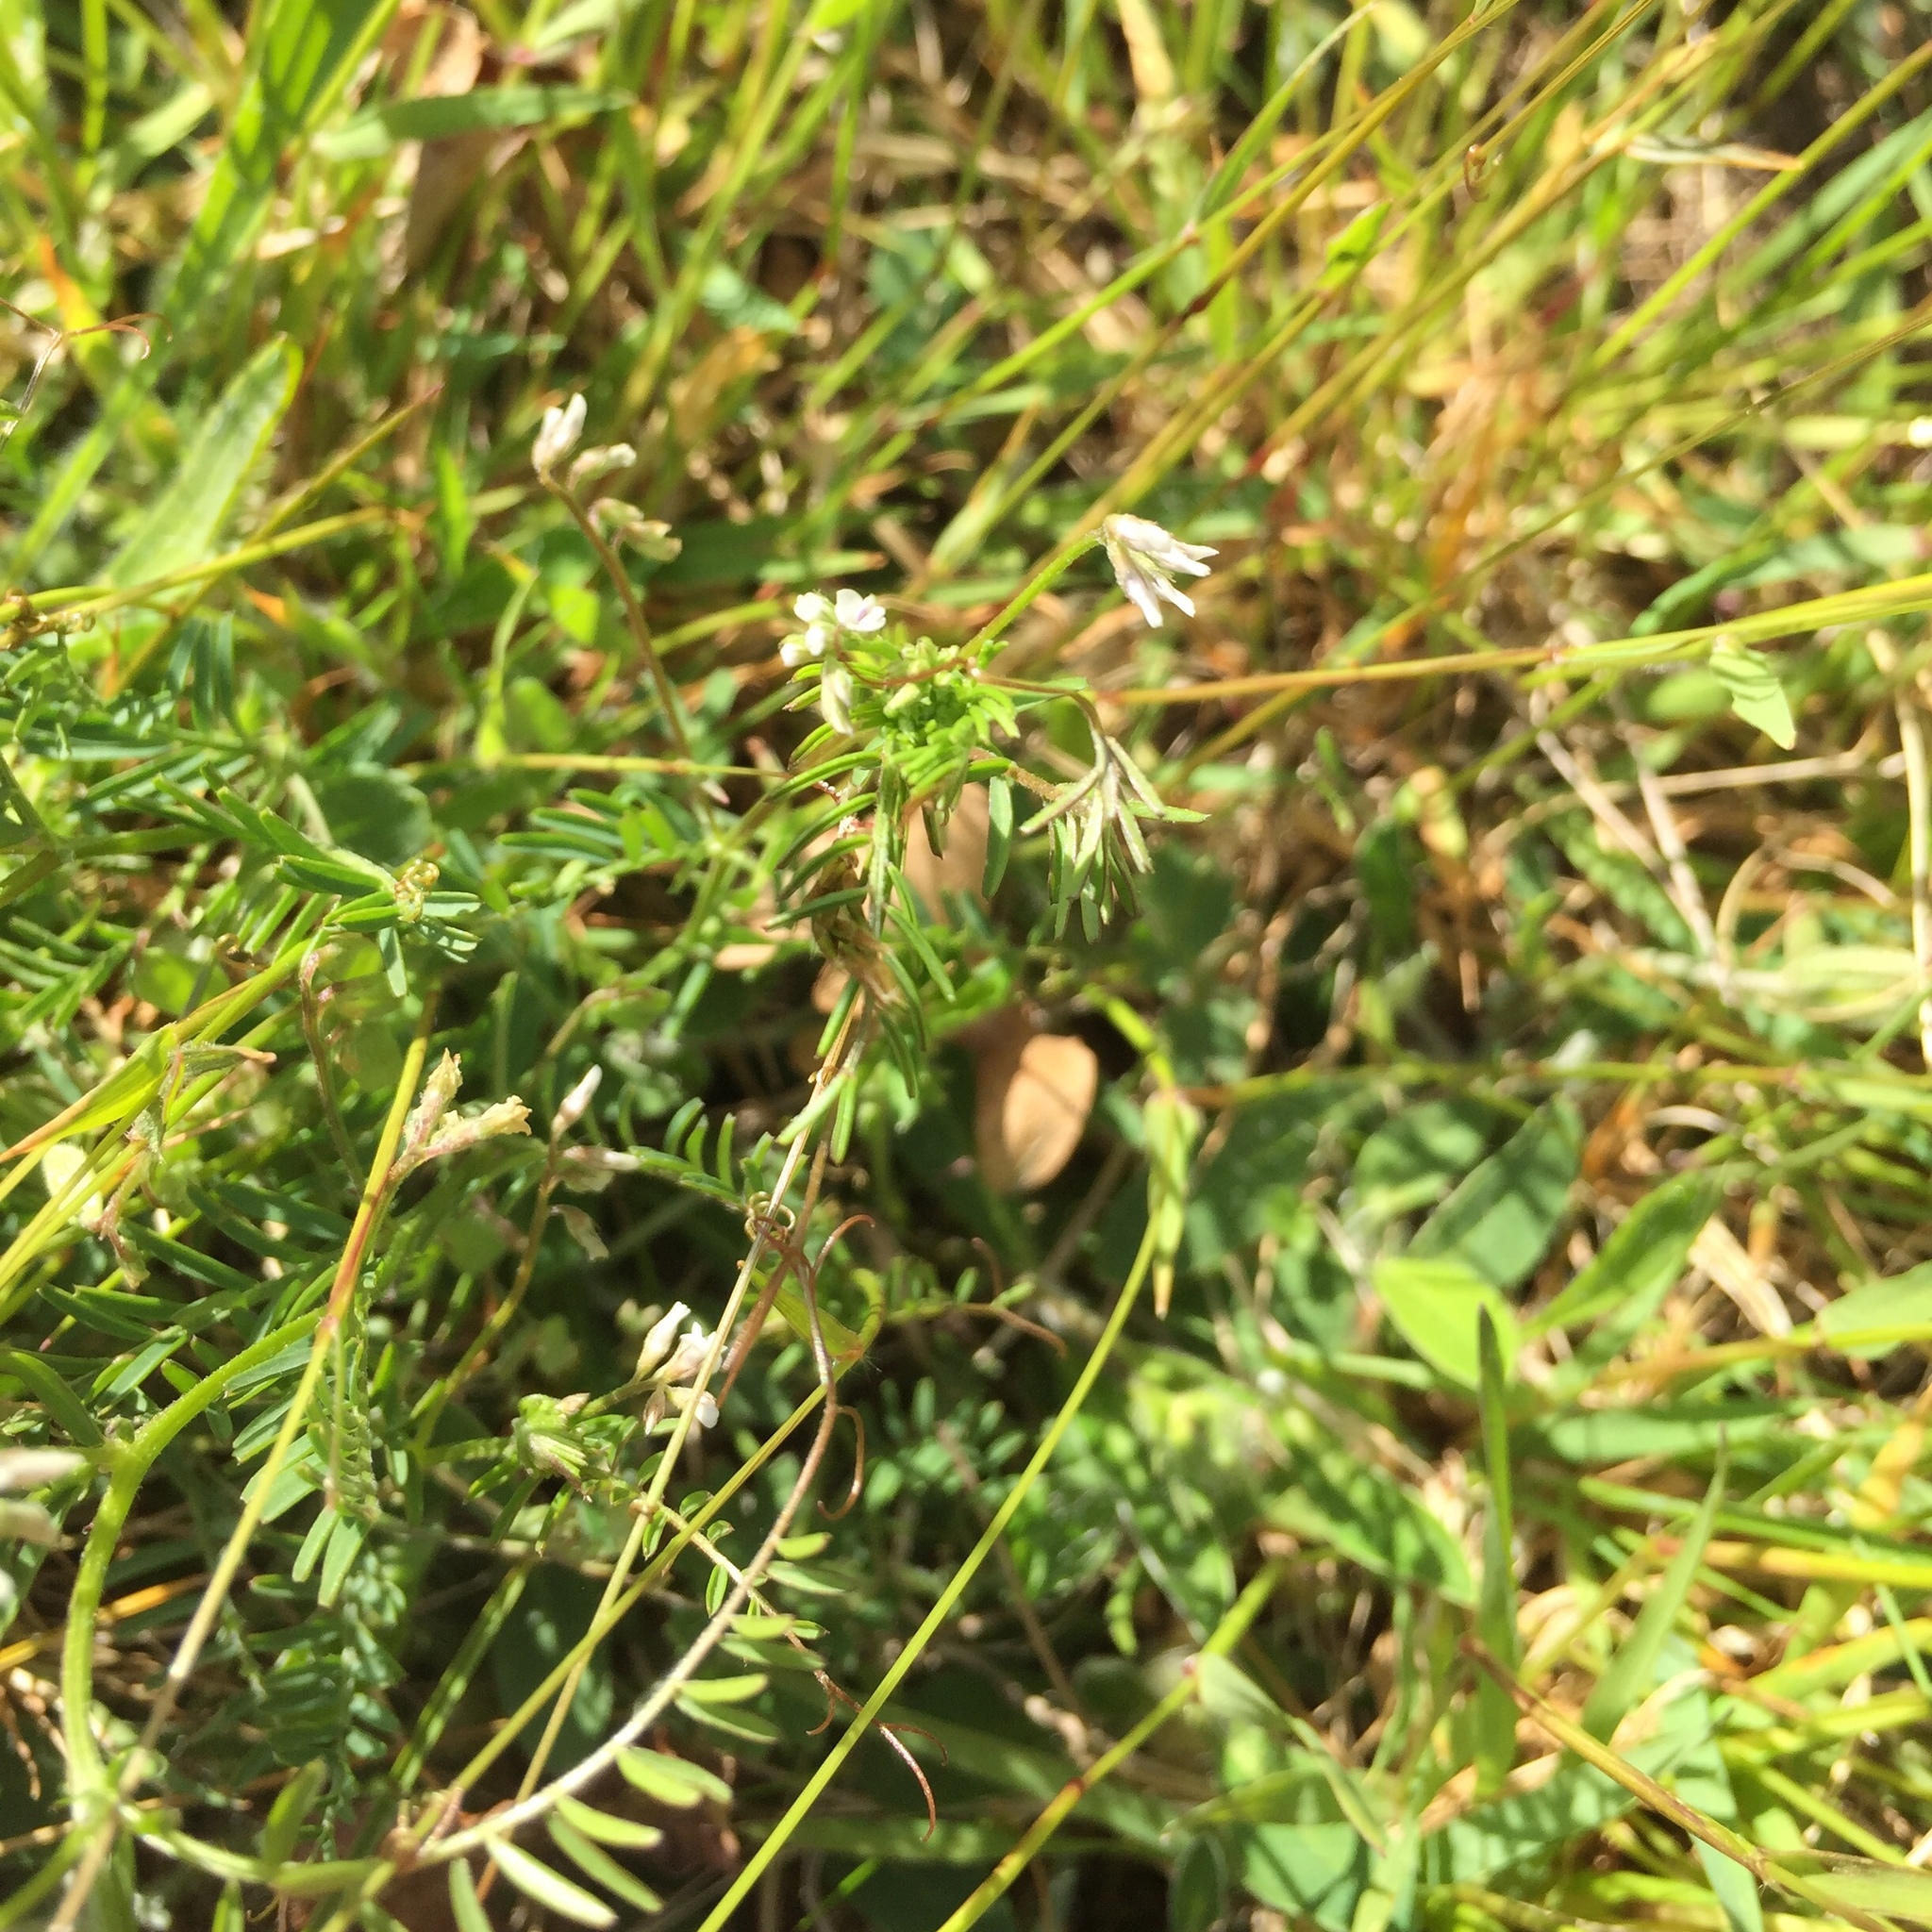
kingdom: Plantae
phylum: Tracheophyta
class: Magnoliopsida
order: Fabales
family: Fabaceae
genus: Vicia
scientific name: Vicia hirsuta
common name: Tiny vetch
